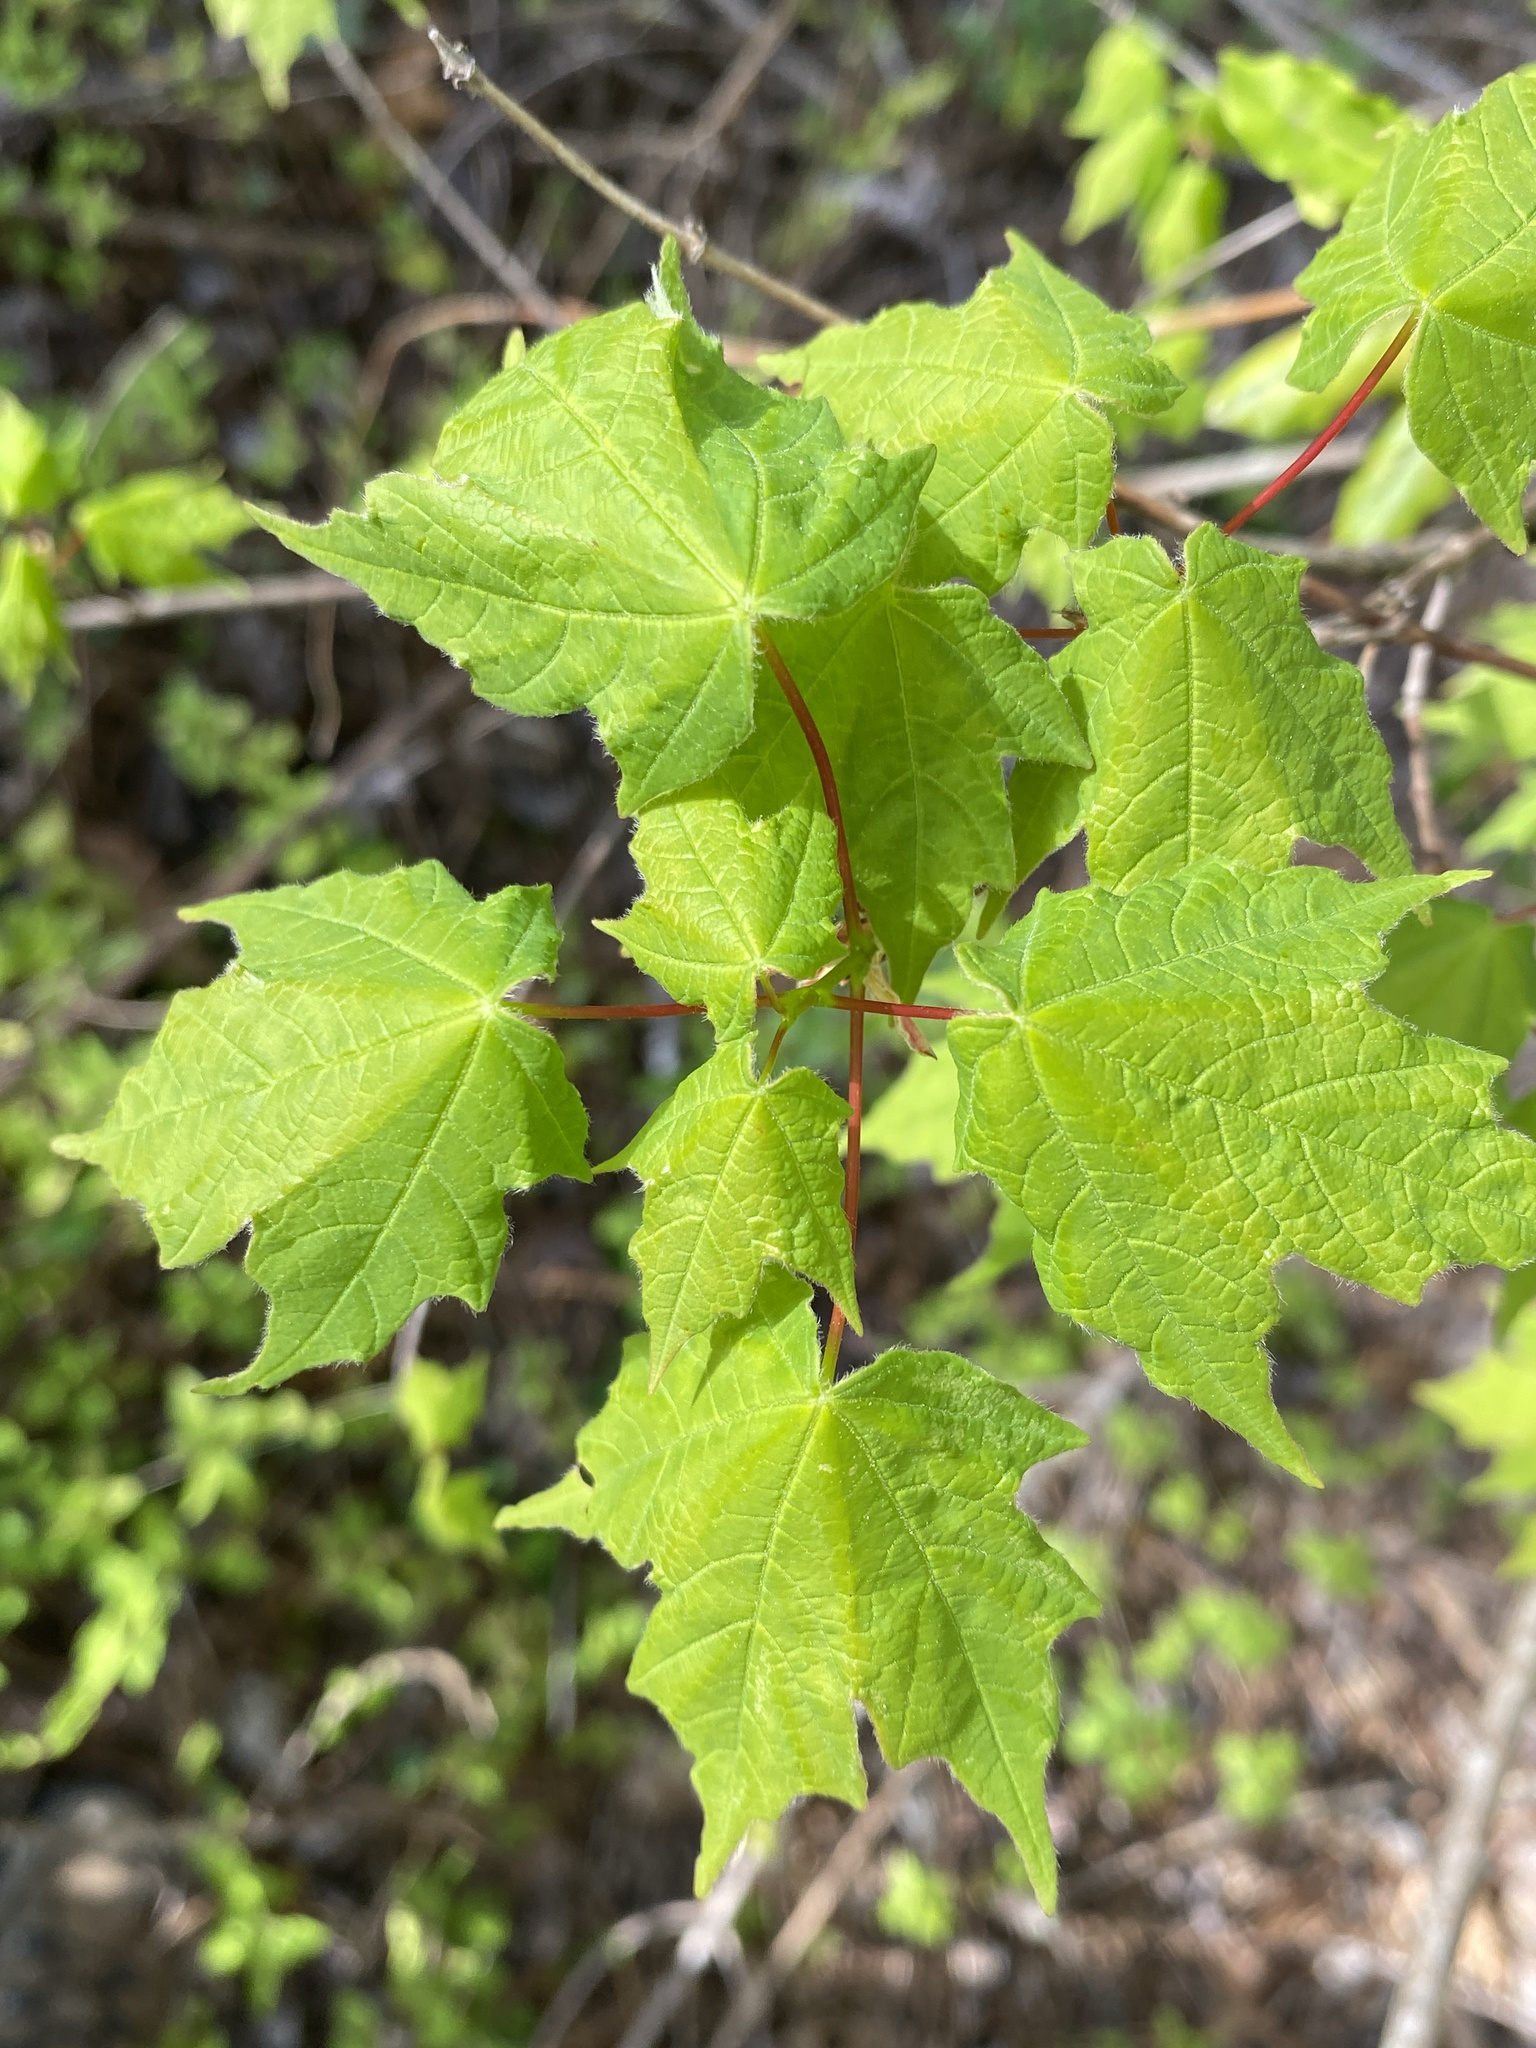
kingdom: Plantae
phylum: Tracheophyta
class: Magnoliopsida
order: Sapindales
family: Sapindaceae
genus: Acer
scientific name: Acer leucoderme
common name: Chalk maple
